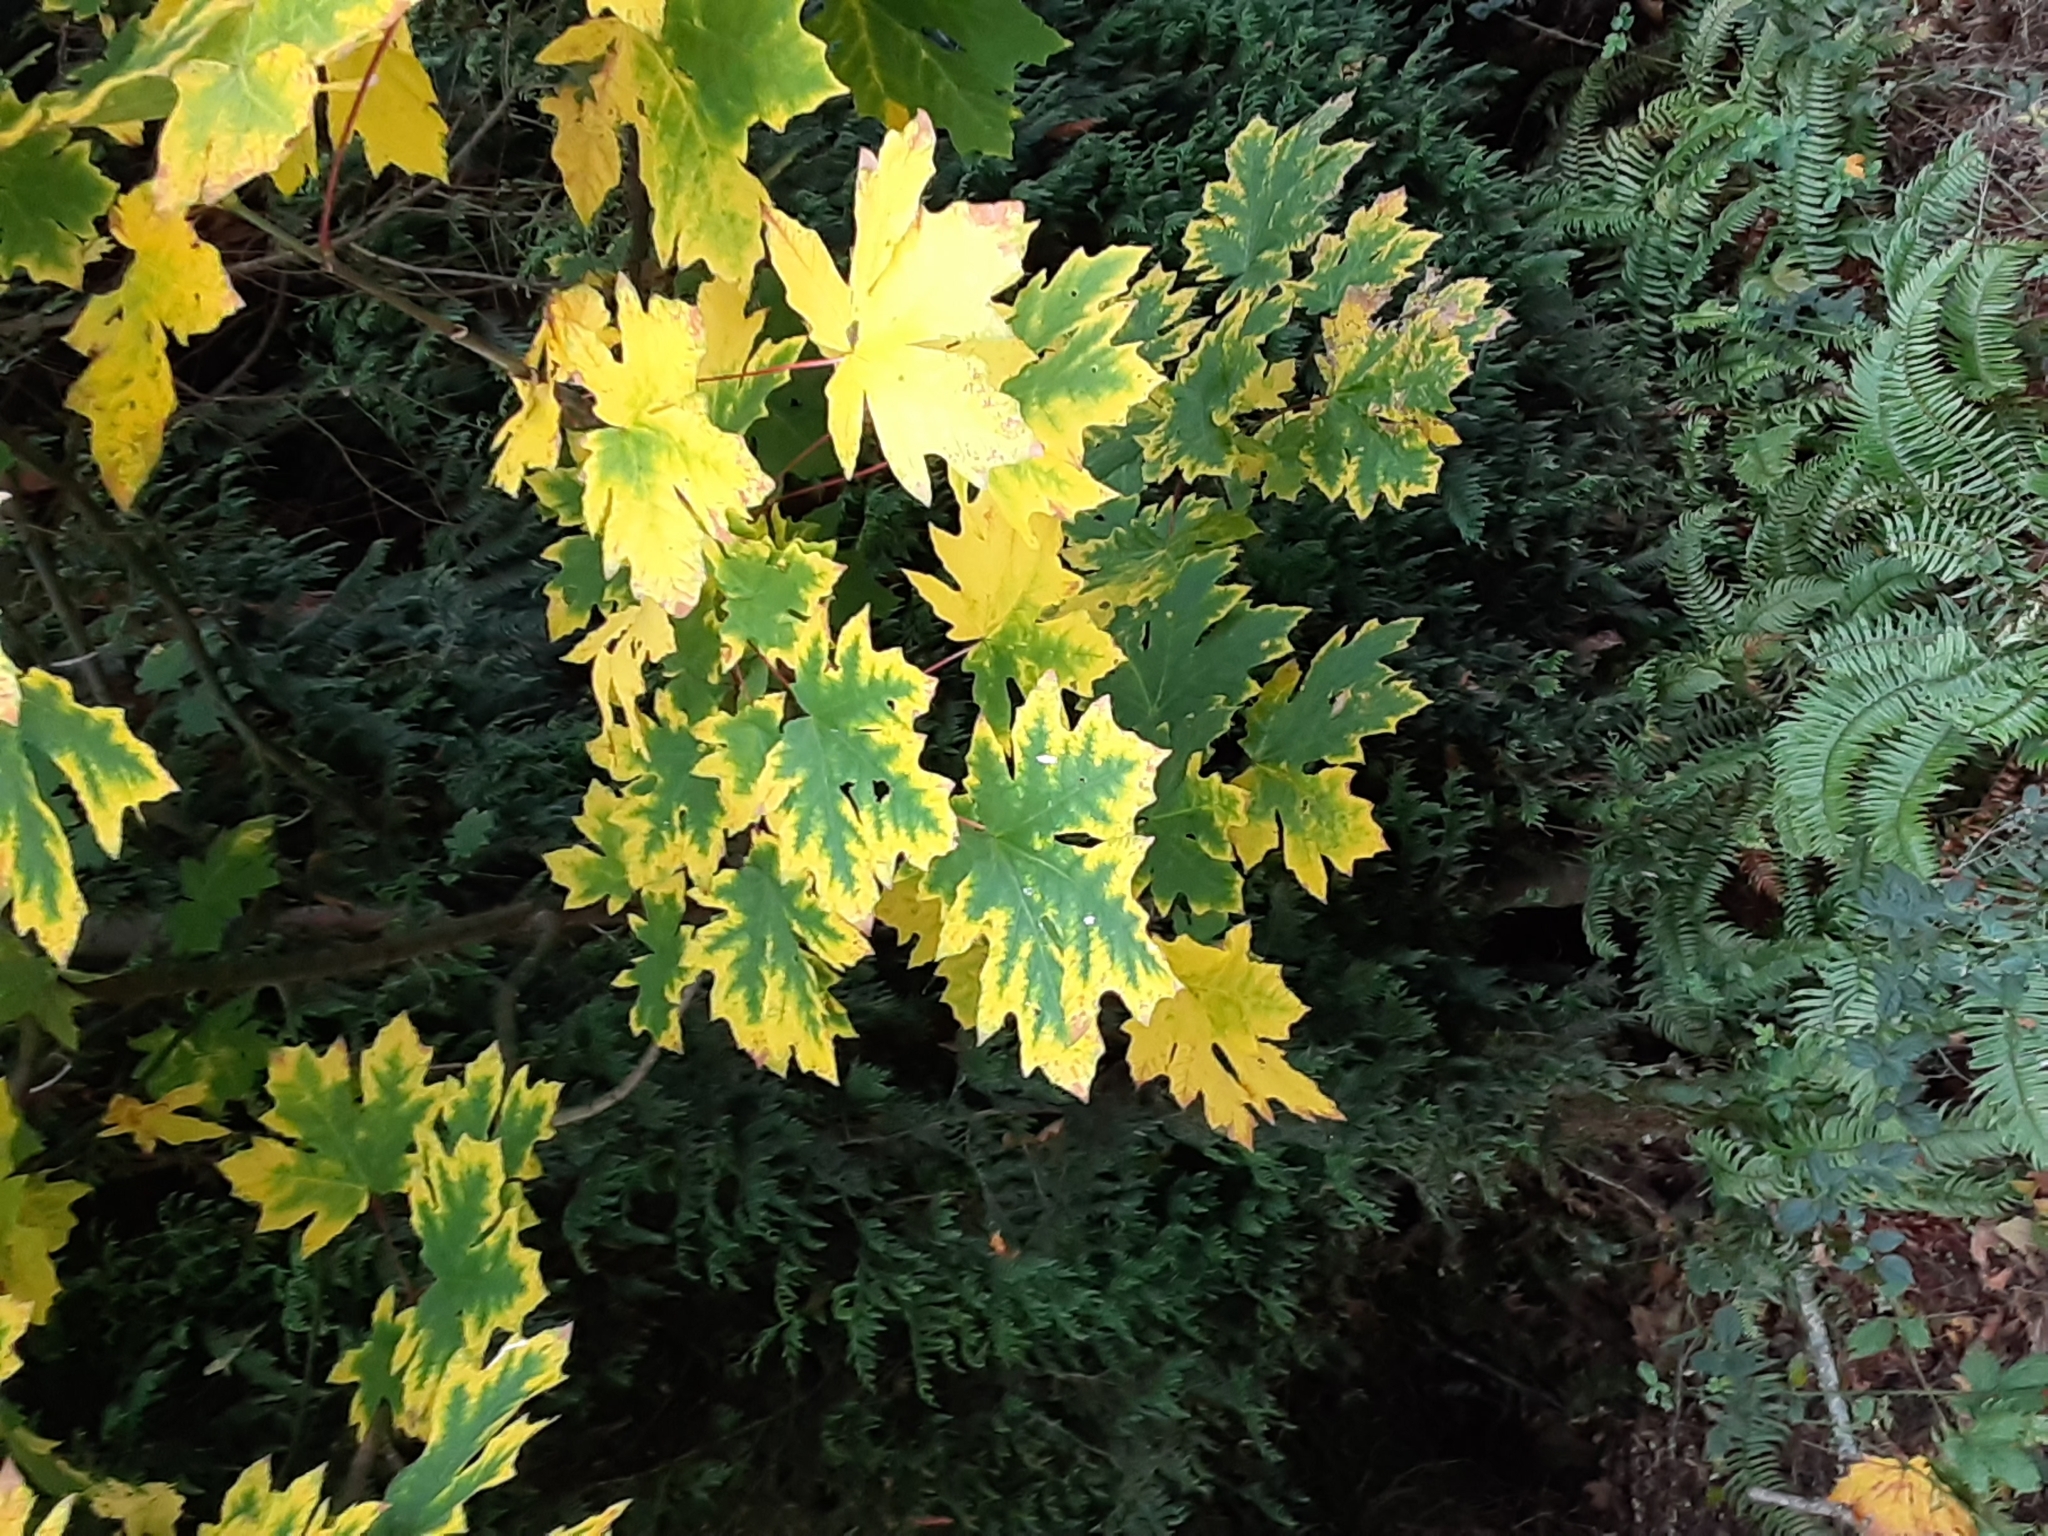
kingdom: Plantae
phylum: Tracheophyta
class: Magnoliopsida
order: Sapindales
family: Sapindaceae
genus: Acer
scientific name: Acer macrophyllum
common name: Oregon maple
